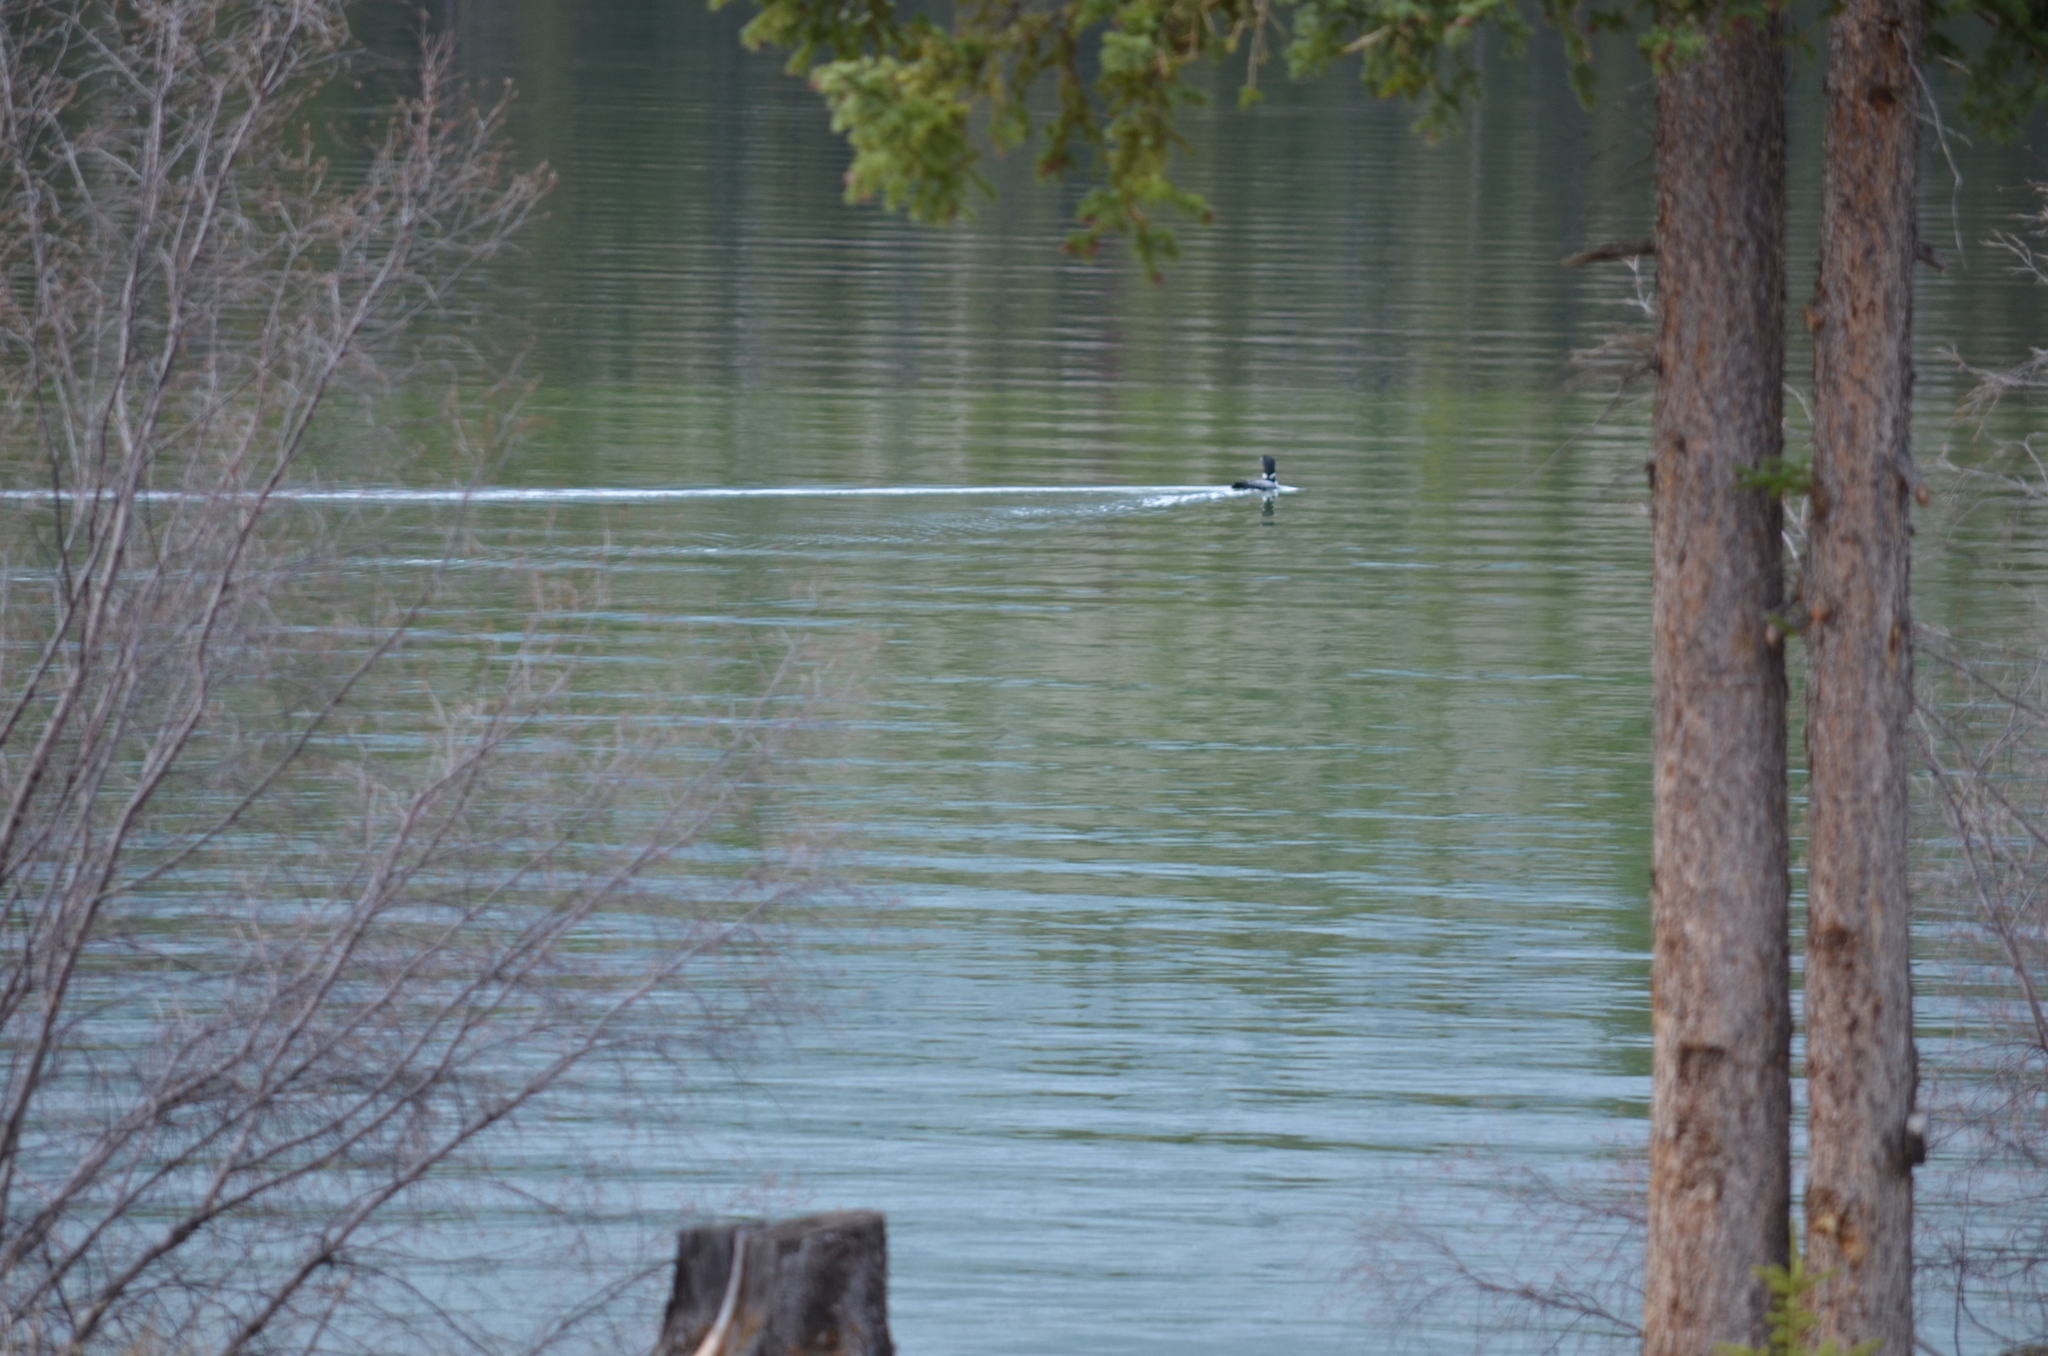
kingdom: Animalia
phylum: Chordata
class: Aves
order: Gaviiformes
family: Gaviidae
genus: Gavia
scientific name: Gavia immer
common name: Common loon
